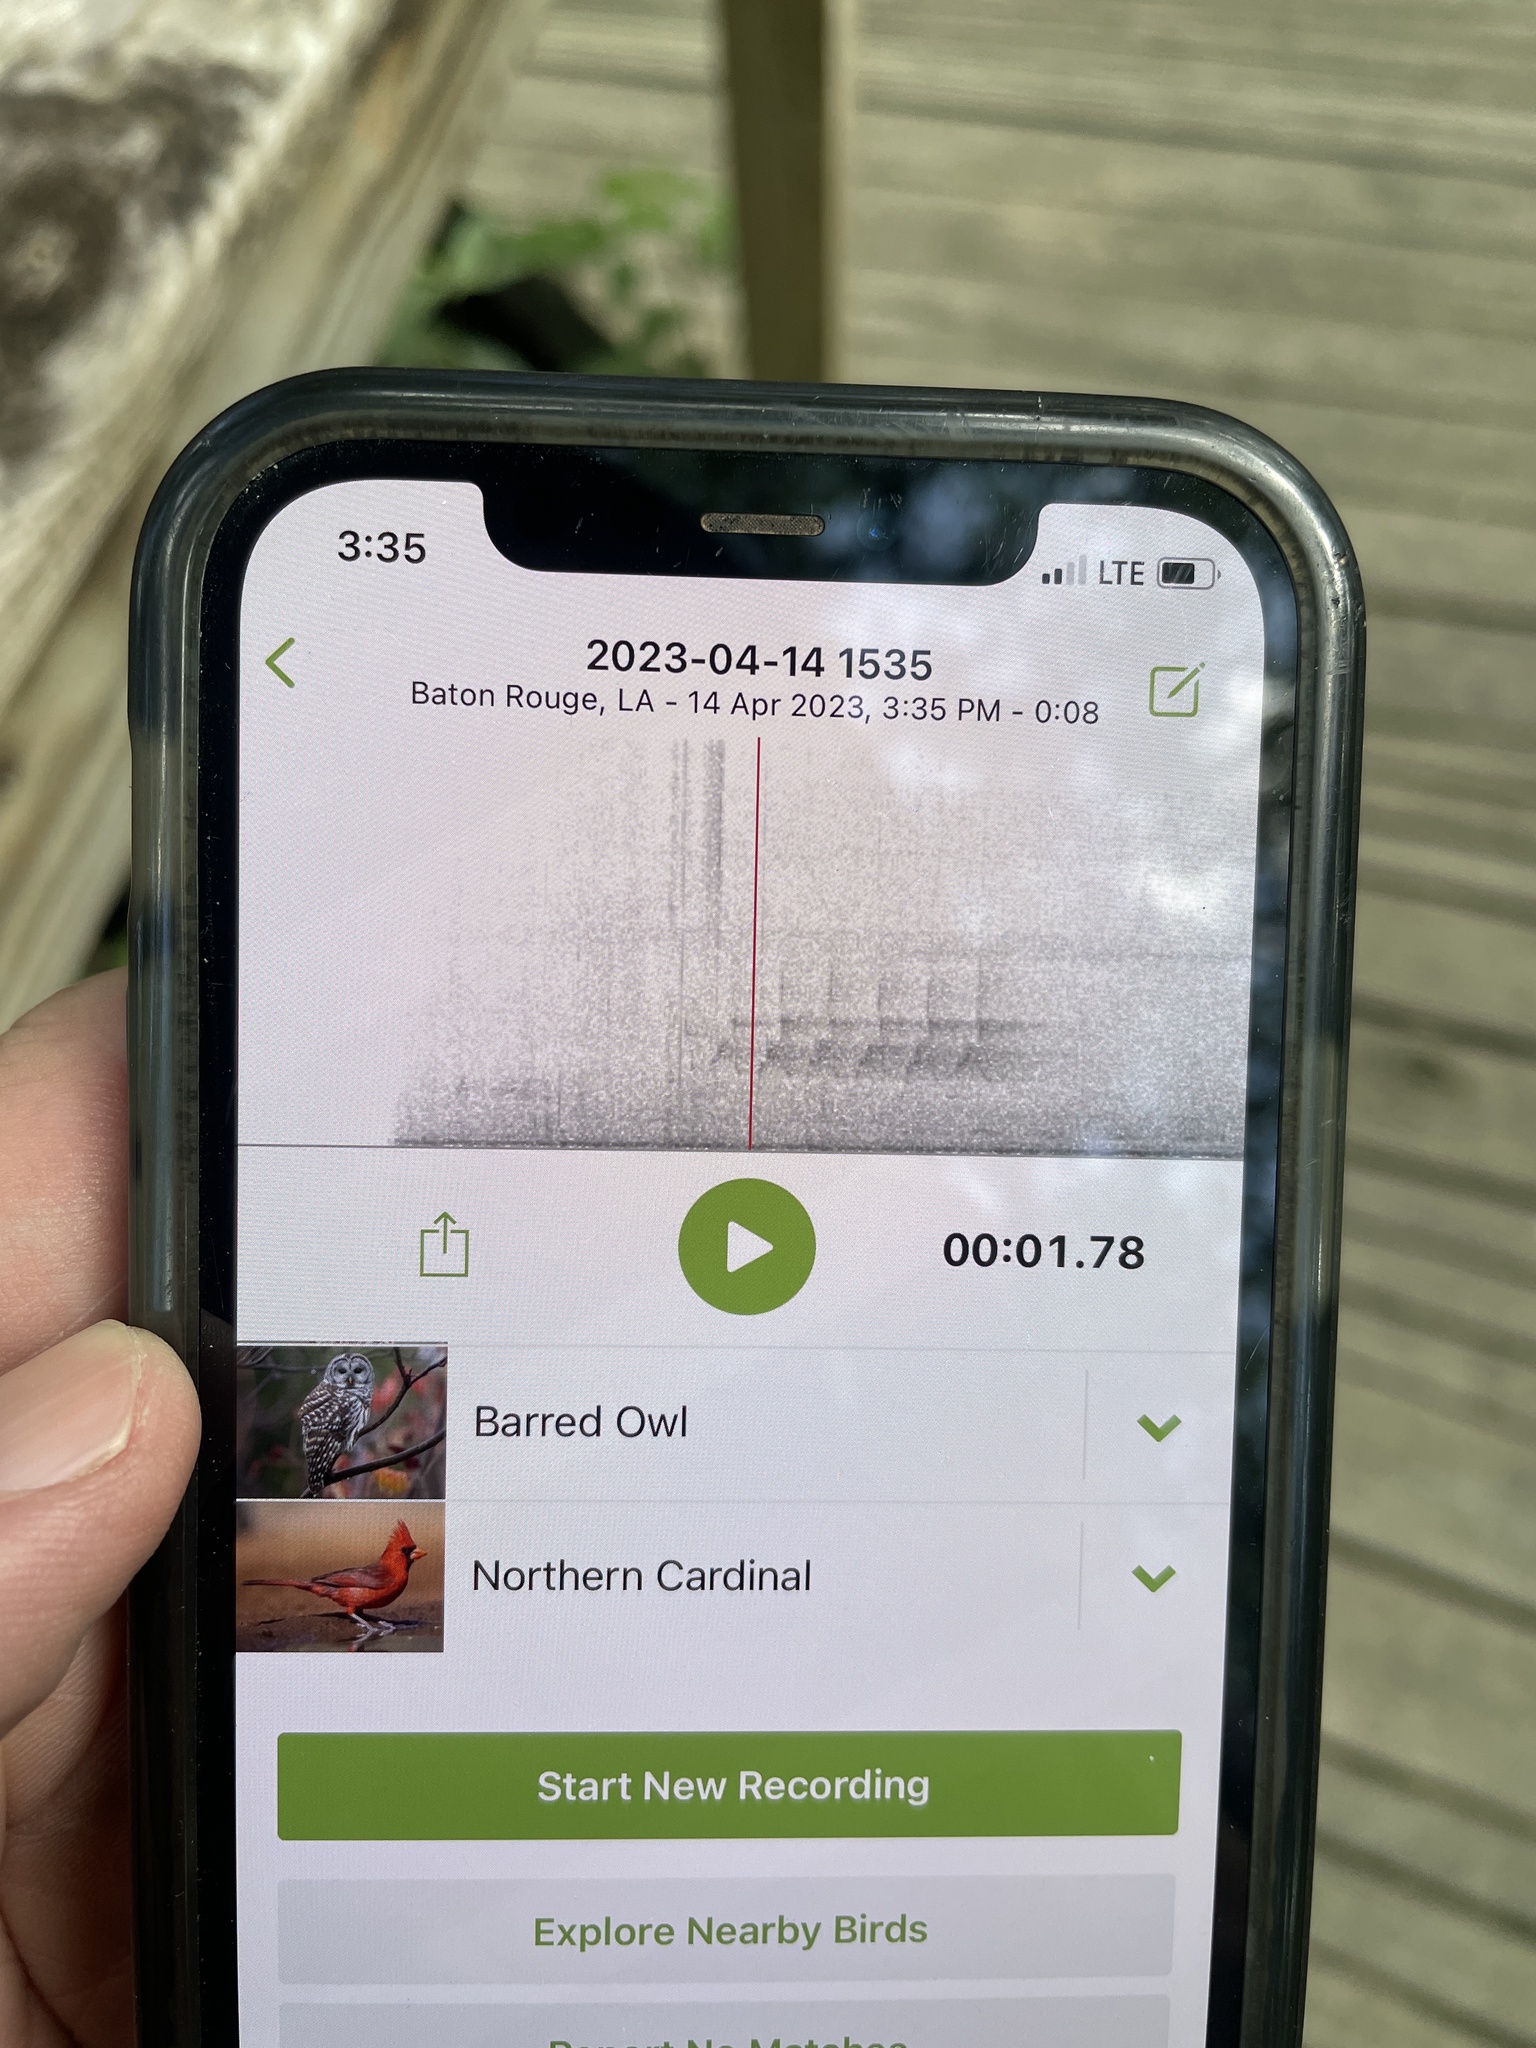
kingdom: Animalia
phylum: Chordata
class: Aves
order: Strigiformes
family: Strigidae
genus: Strix
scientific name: Strix varia
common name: Barred owl
